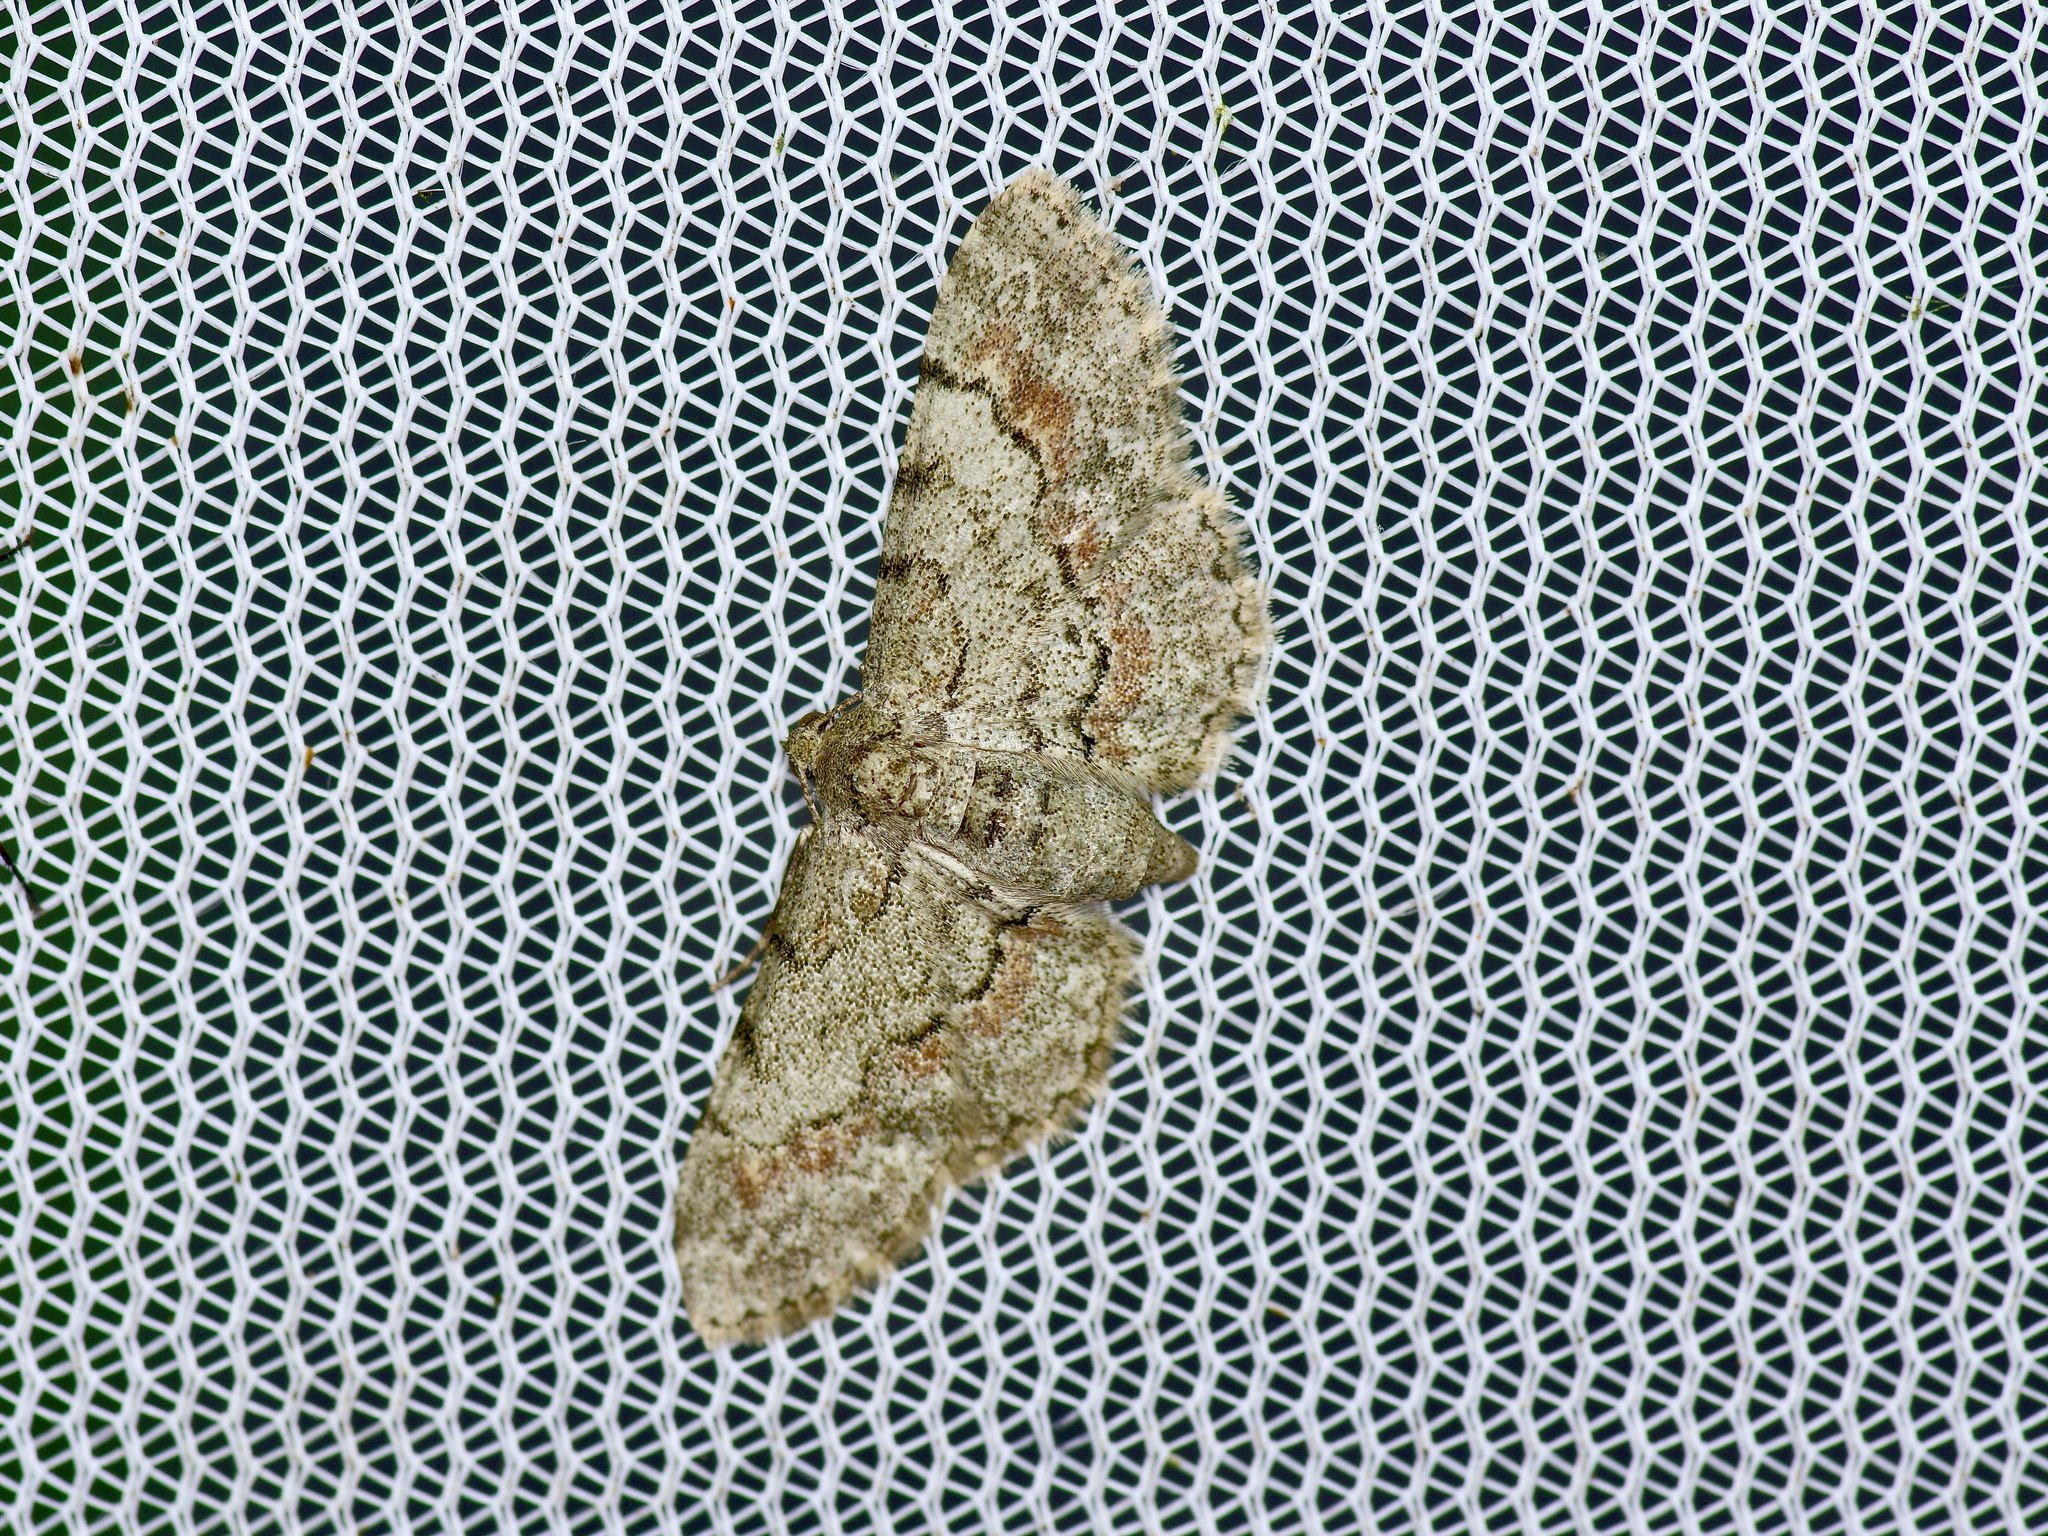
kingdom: Animalia
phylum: Arthropoda
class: Insecta
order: Lepidoptera
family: Geometridae
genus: Glenoides
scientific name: Glenoides texanaria
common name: Texas gray
